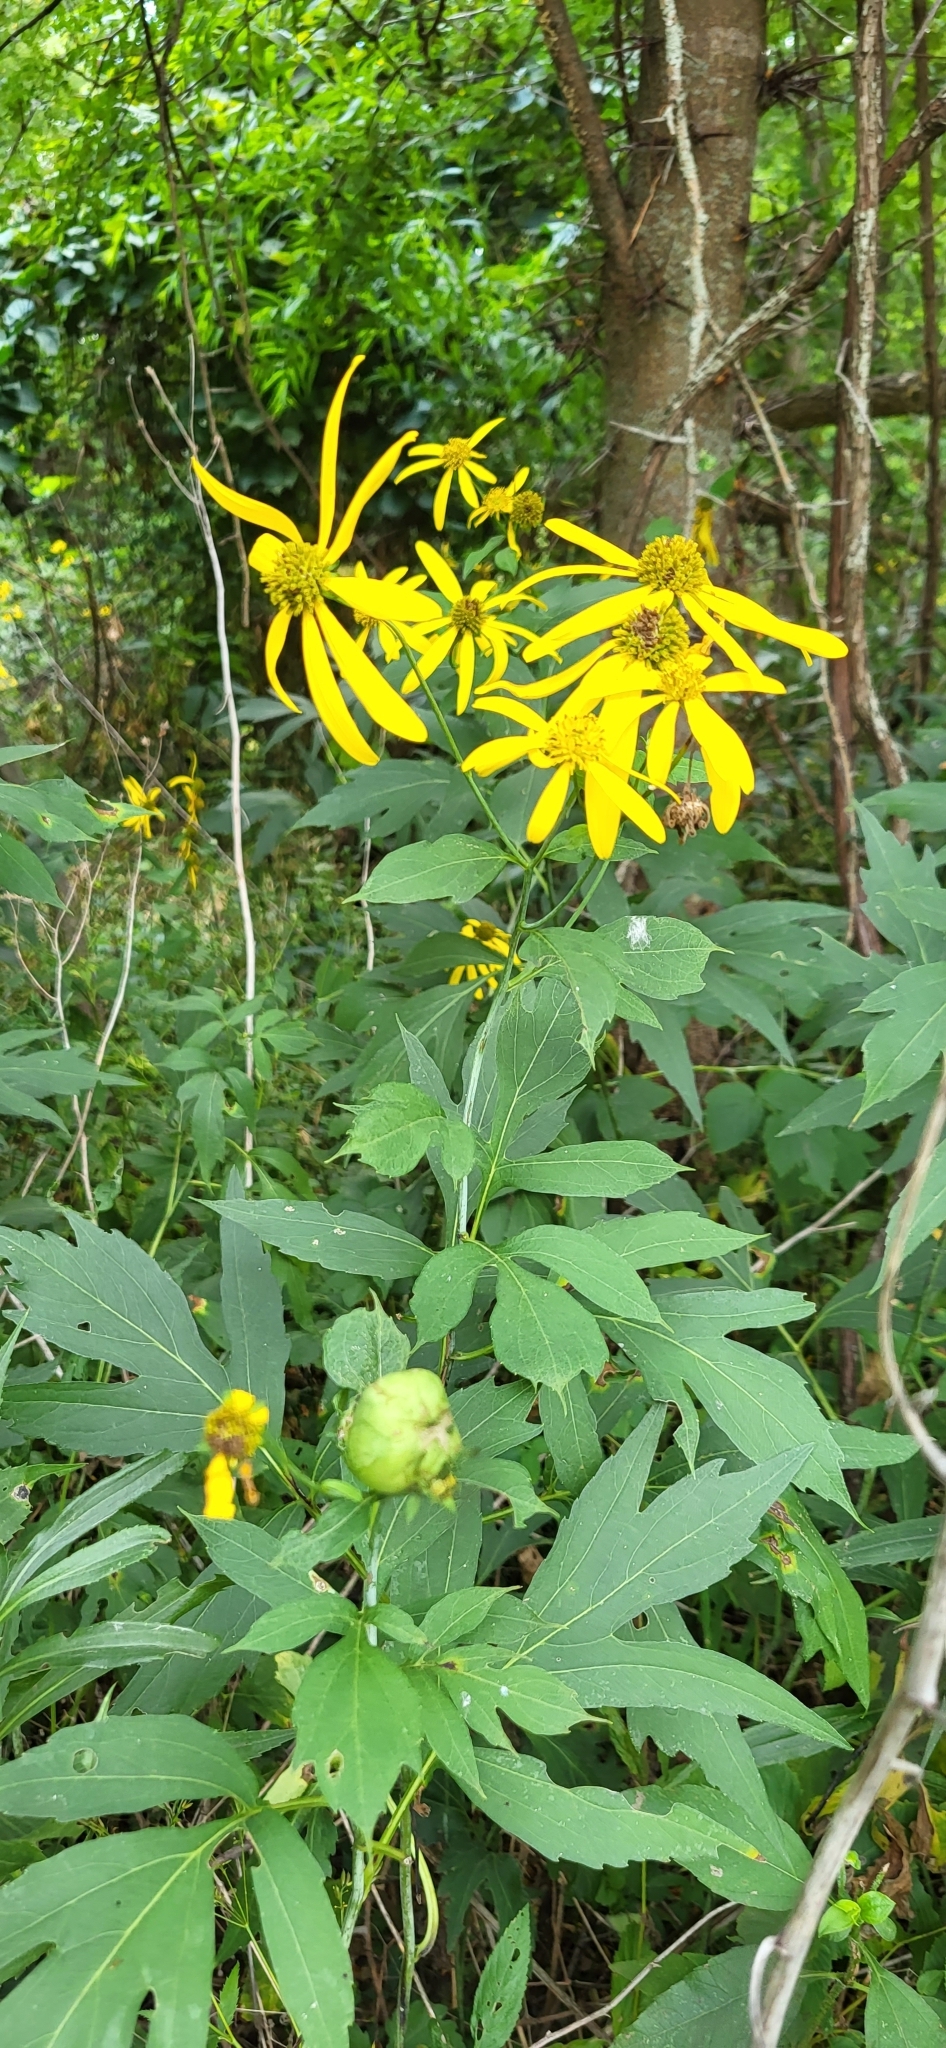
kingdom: Animalia
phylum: Arthropoda
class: Insecta
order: Diptera
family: Cecidomyiidae
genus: Asphondylia
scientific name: Asphondylia rudbeckiaeconspicua
